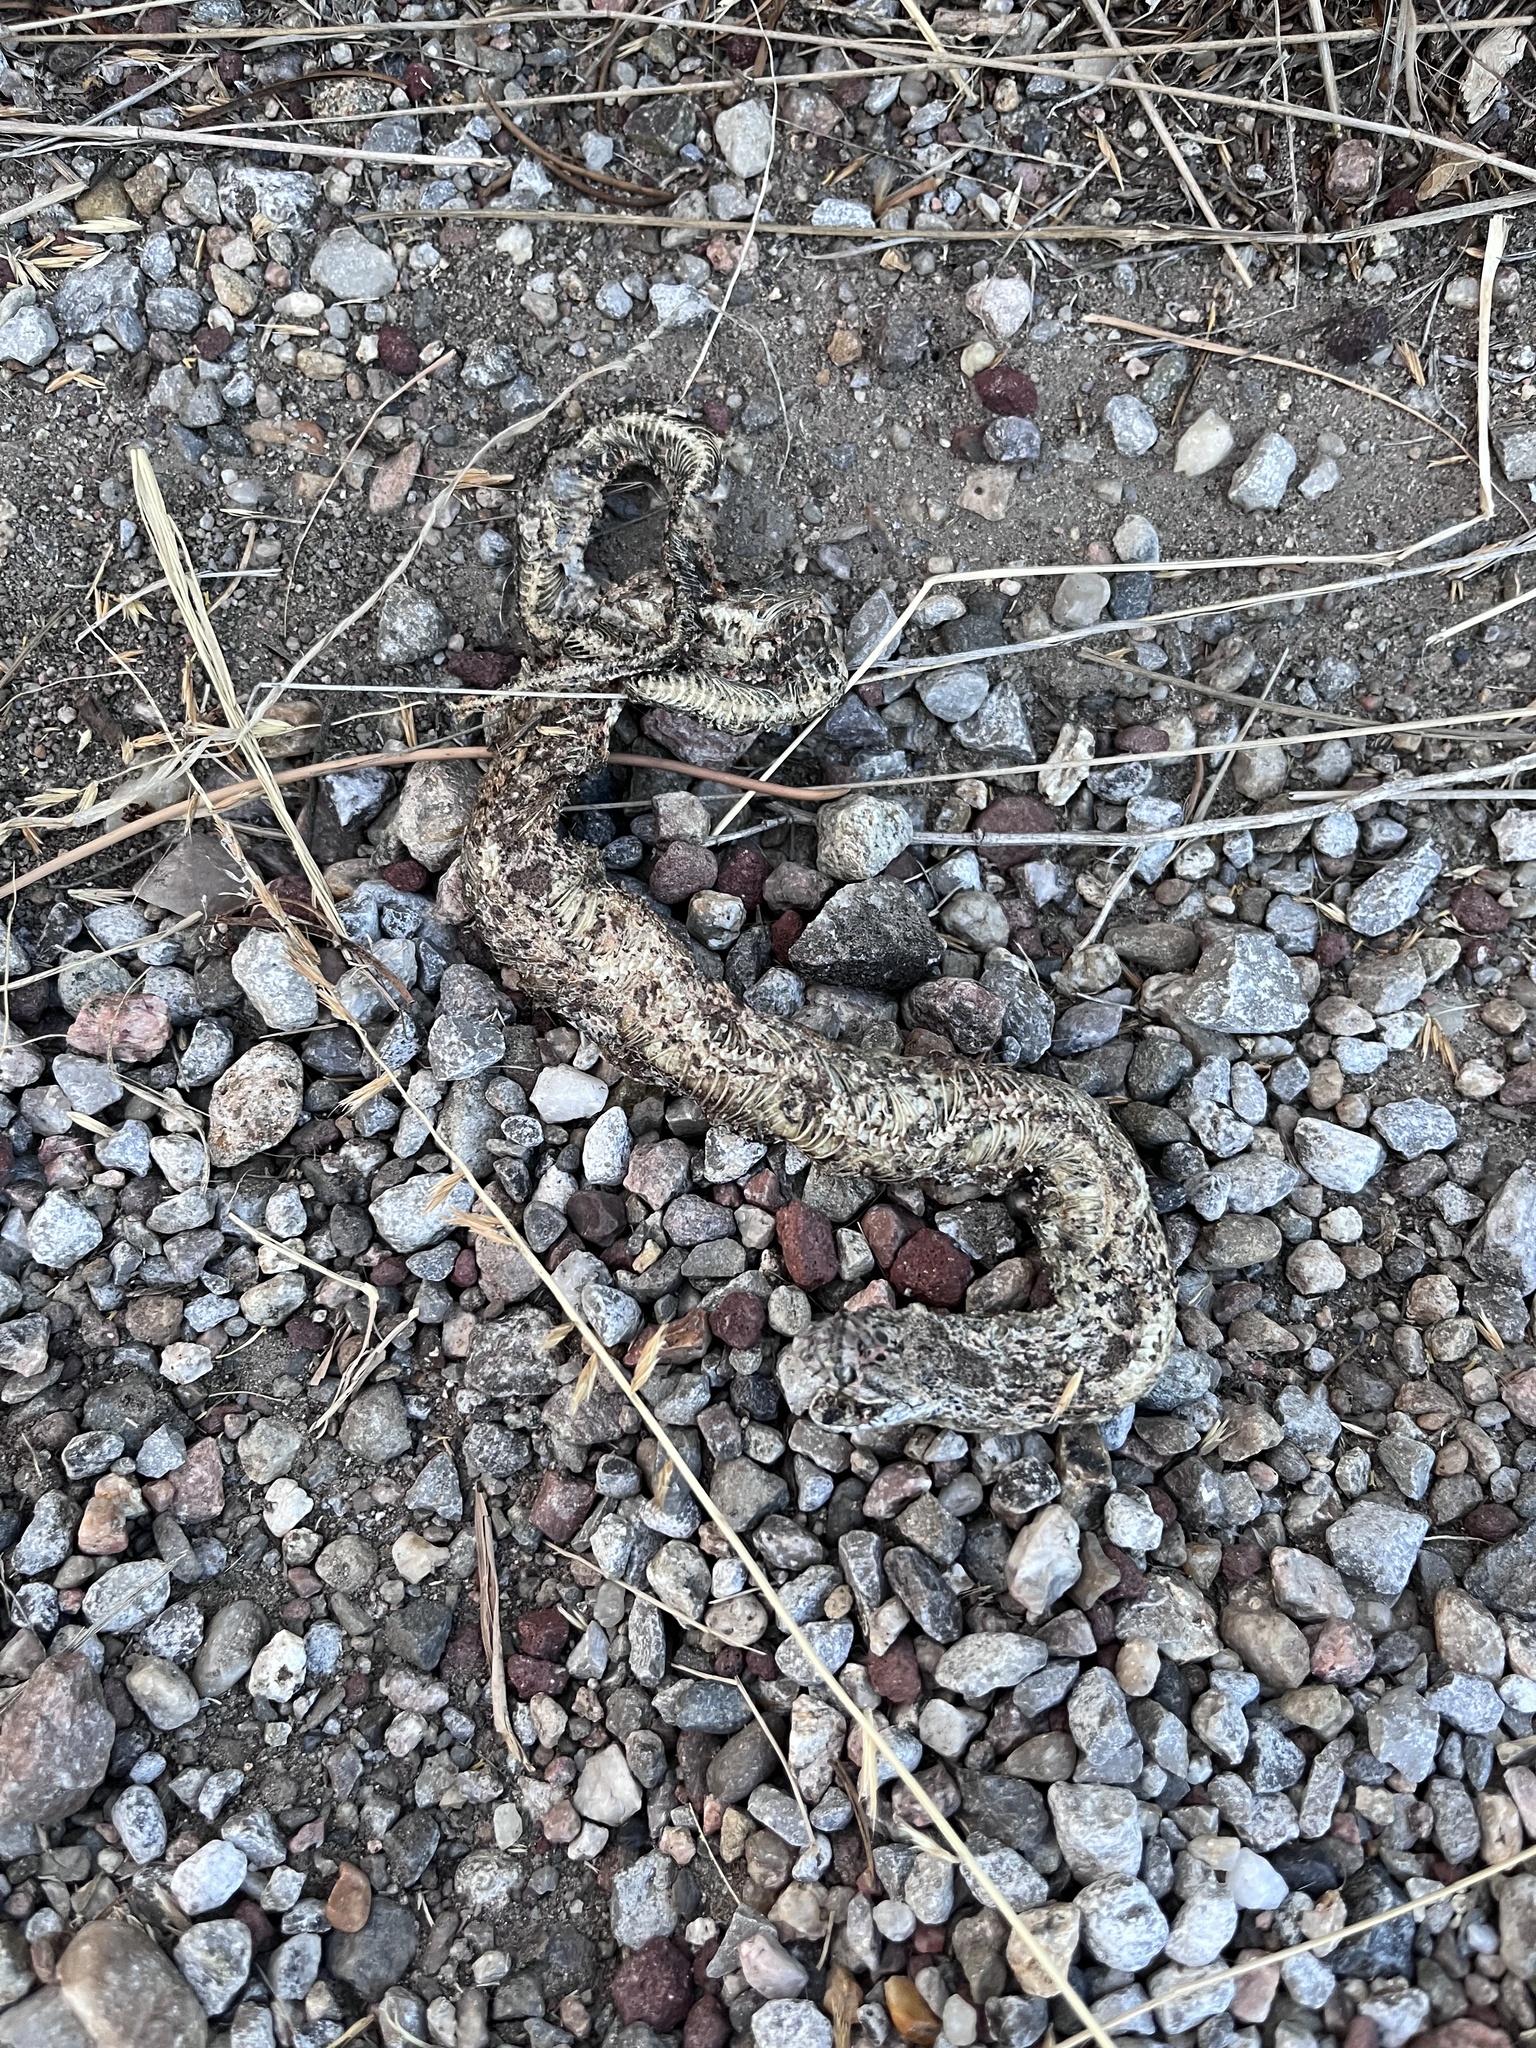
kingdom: Animalia
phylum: Chordata
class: Squamata
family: Colubridae
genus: Pituophis
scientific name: Pituophis catenifer
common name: Gopher snake
